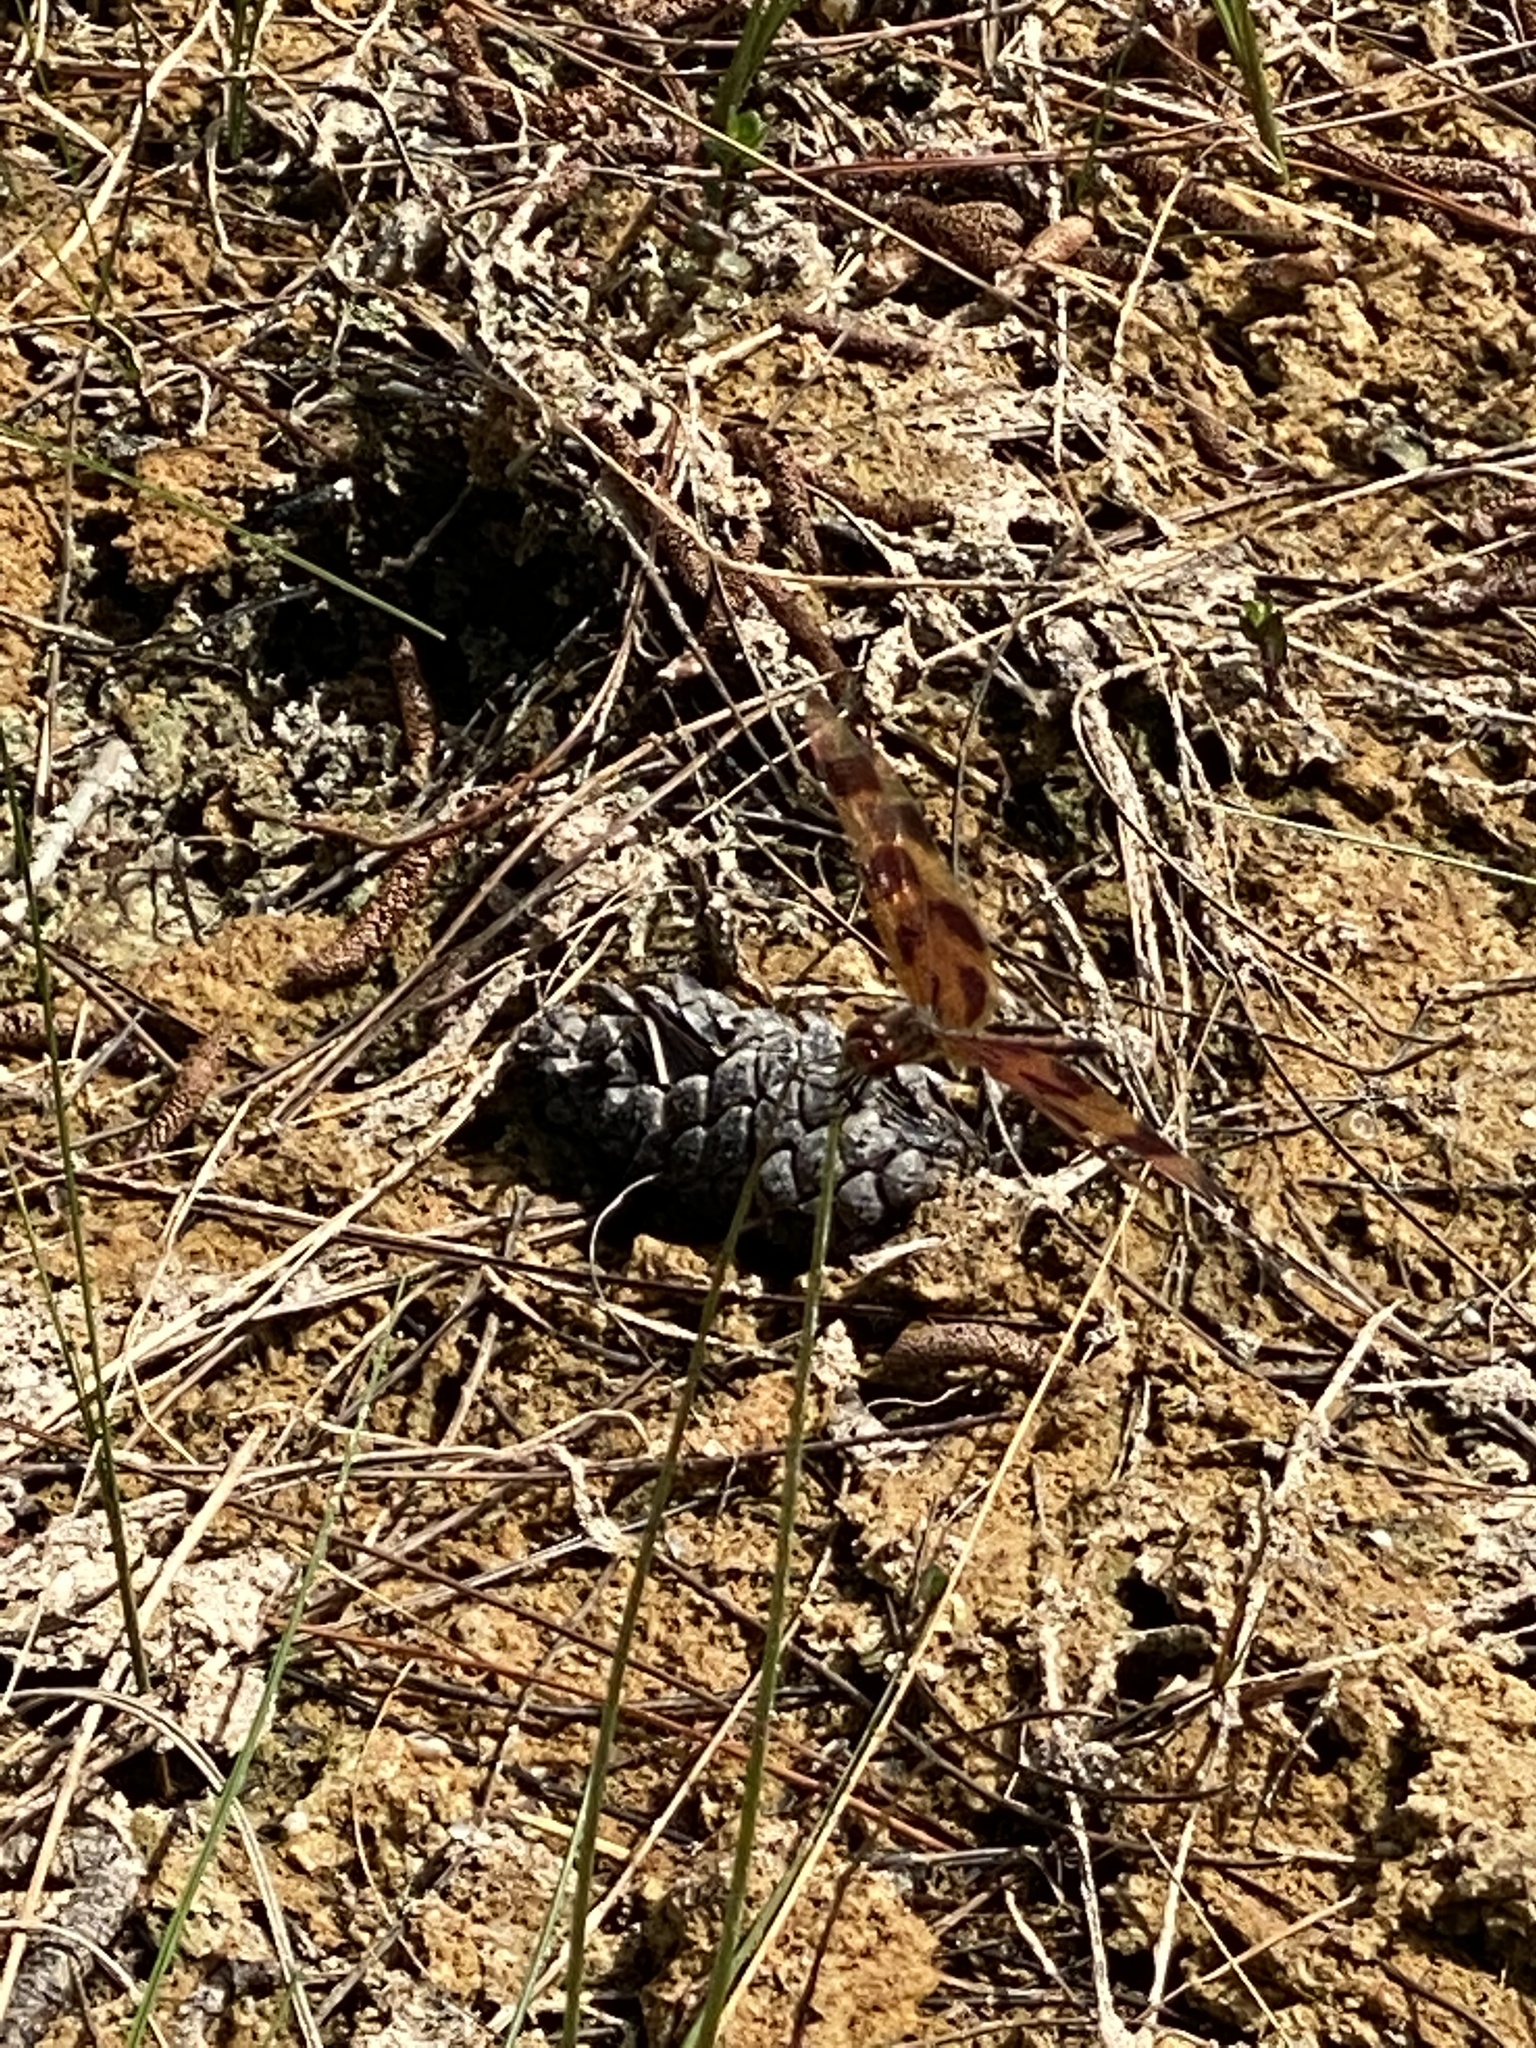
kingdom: Animalia
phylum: Arthropoda
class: Insecta
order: Odonata
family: Libellulidae
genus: Celithemis
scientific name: Celithemis eponina
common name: Halloween pennant
